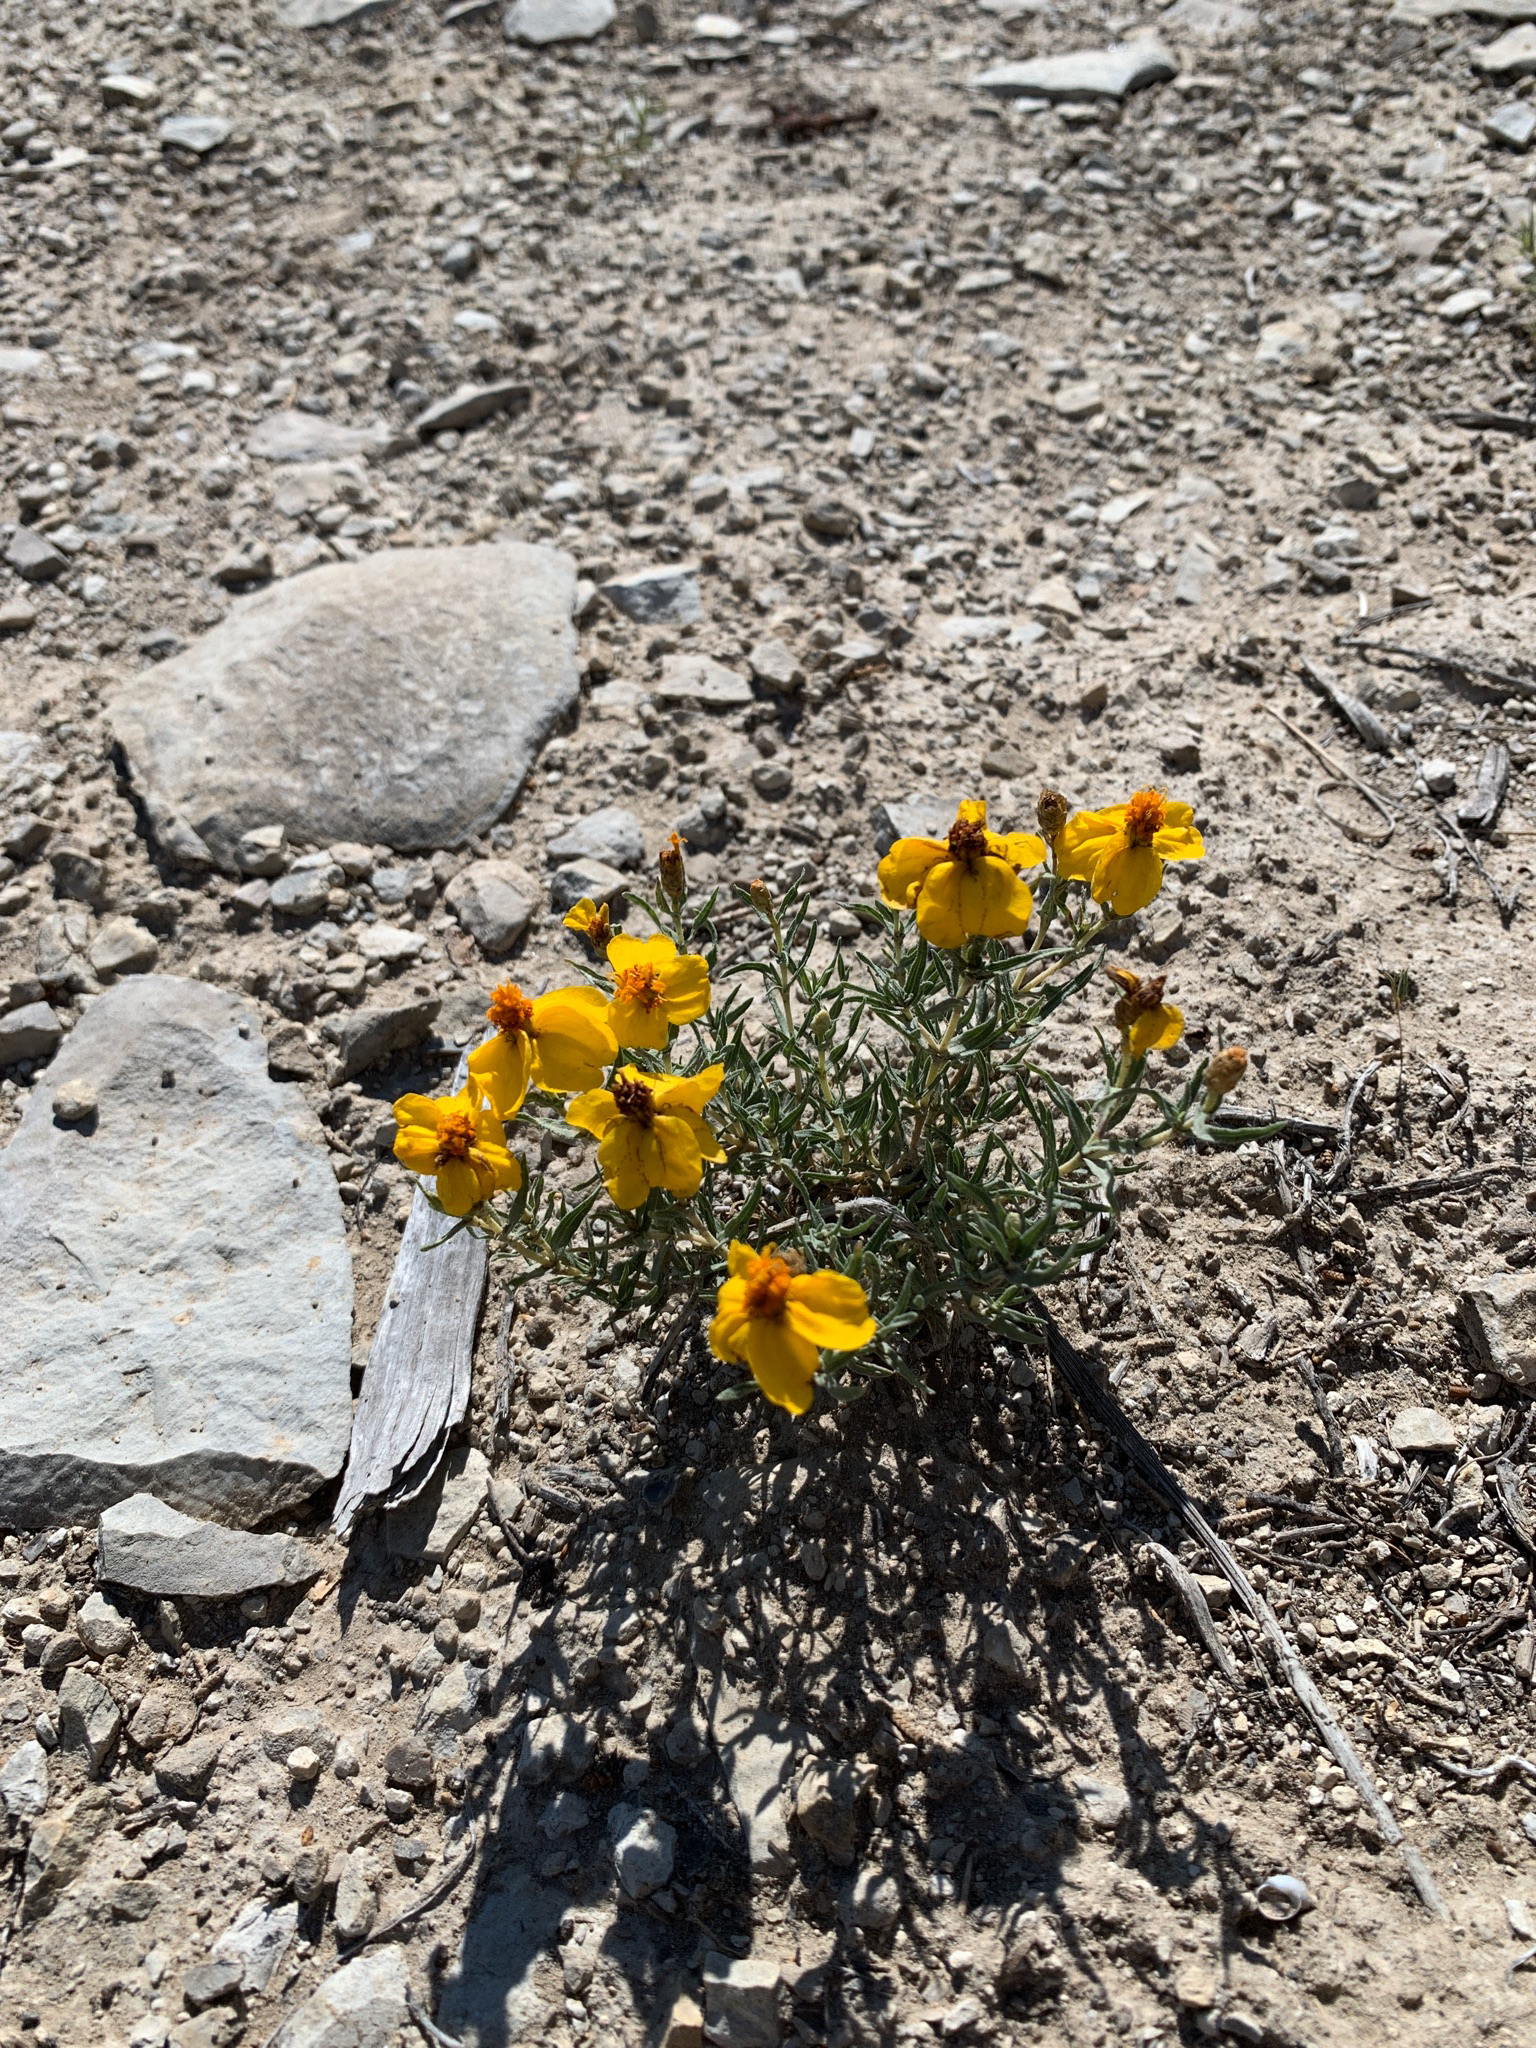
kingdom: Plantae
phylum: Tracheophyta
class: Magnoliopsida
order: Asterales
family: Asteraceae
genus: Zinnia
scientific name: Zinnia grandiflora
